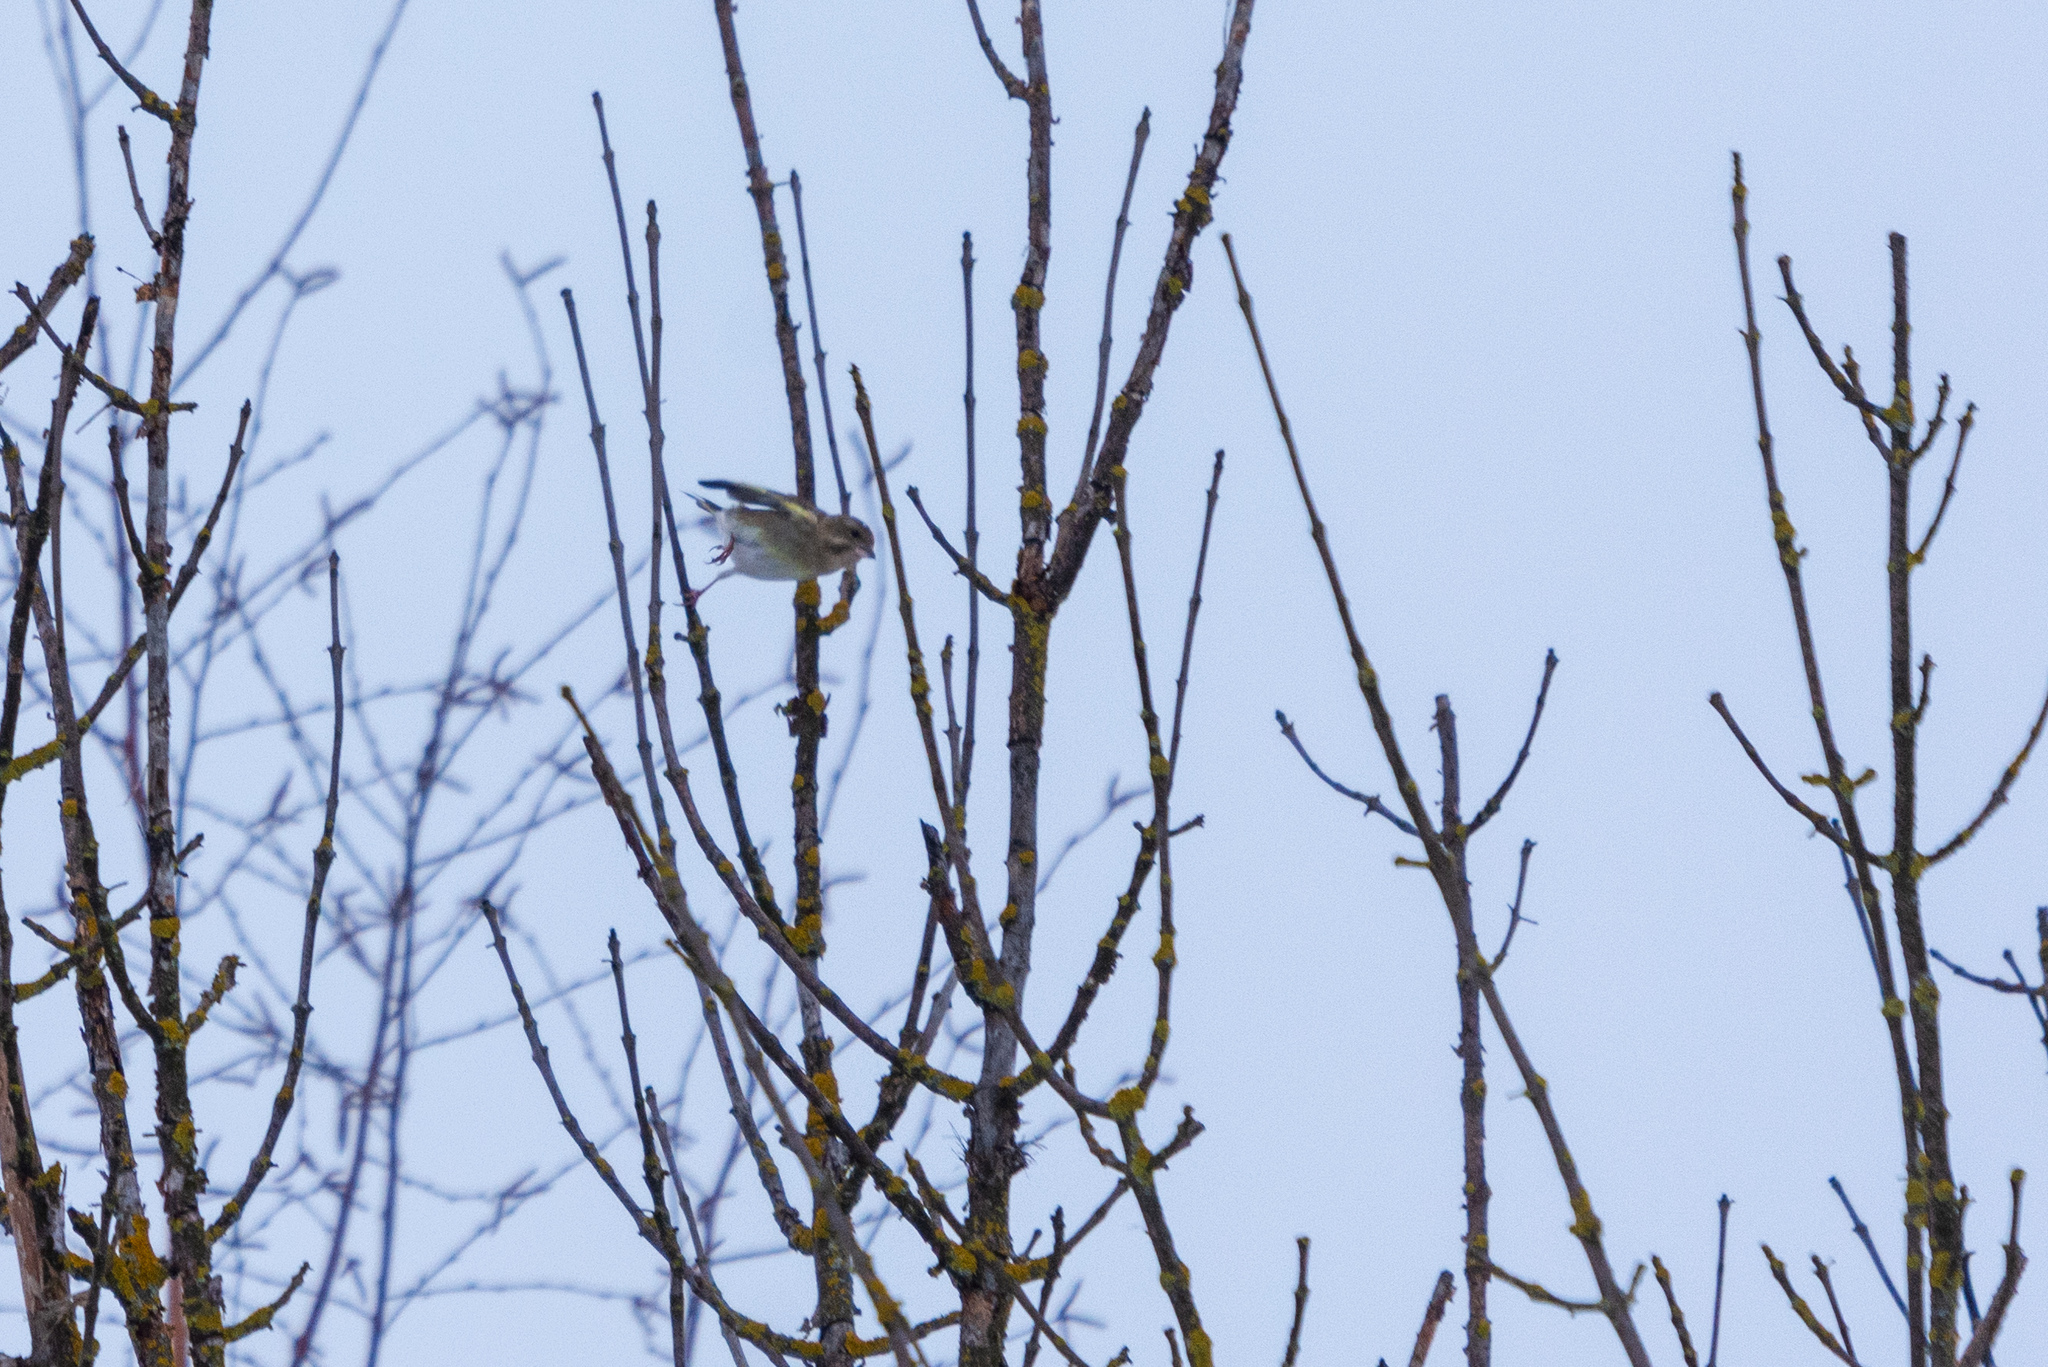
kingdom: Plantae
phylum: Tracheophyta
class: Liliopsida
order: Poales
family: Poaceae
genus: Chloris
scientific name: Chloris chloris
